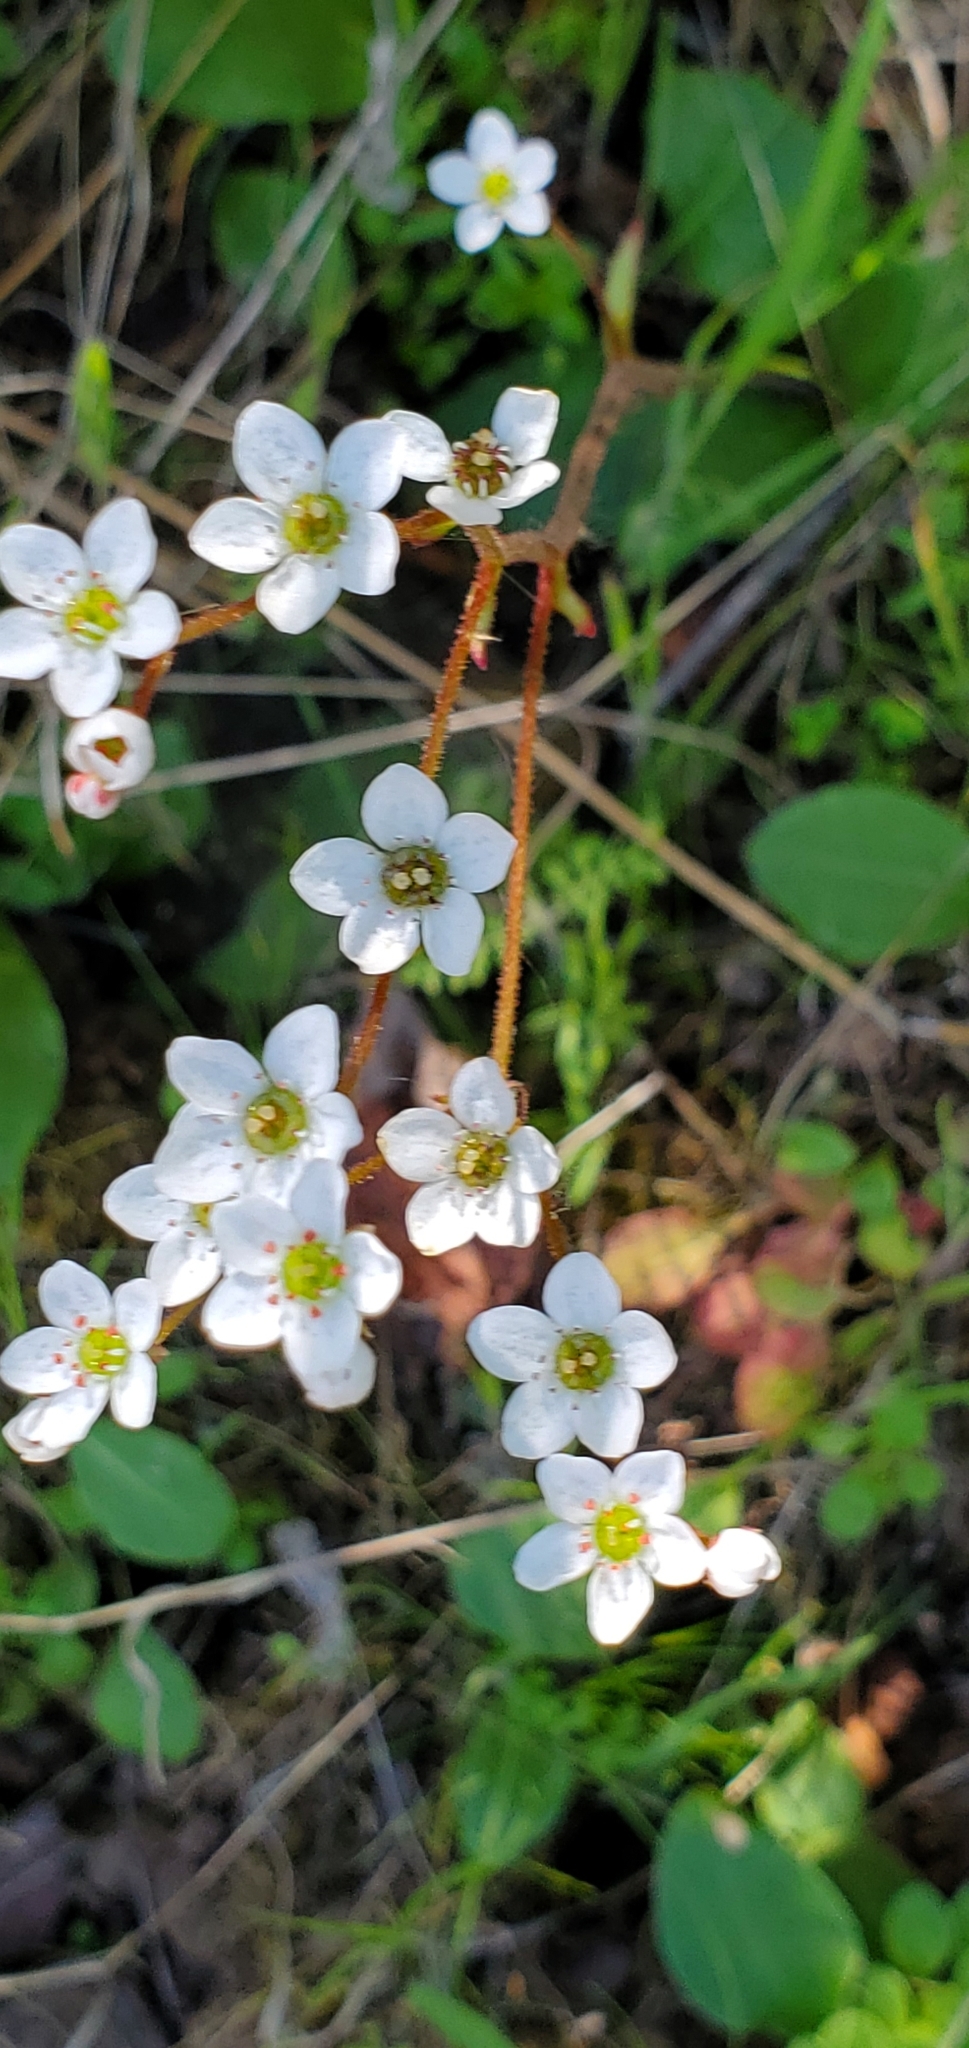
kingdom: Plantae
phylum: Tracheophyta
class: Magnoliopsida
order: Saxifragales
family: Saxifragaceae
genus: Micranthes
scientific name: Micranthes californica
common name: California saxifrage
